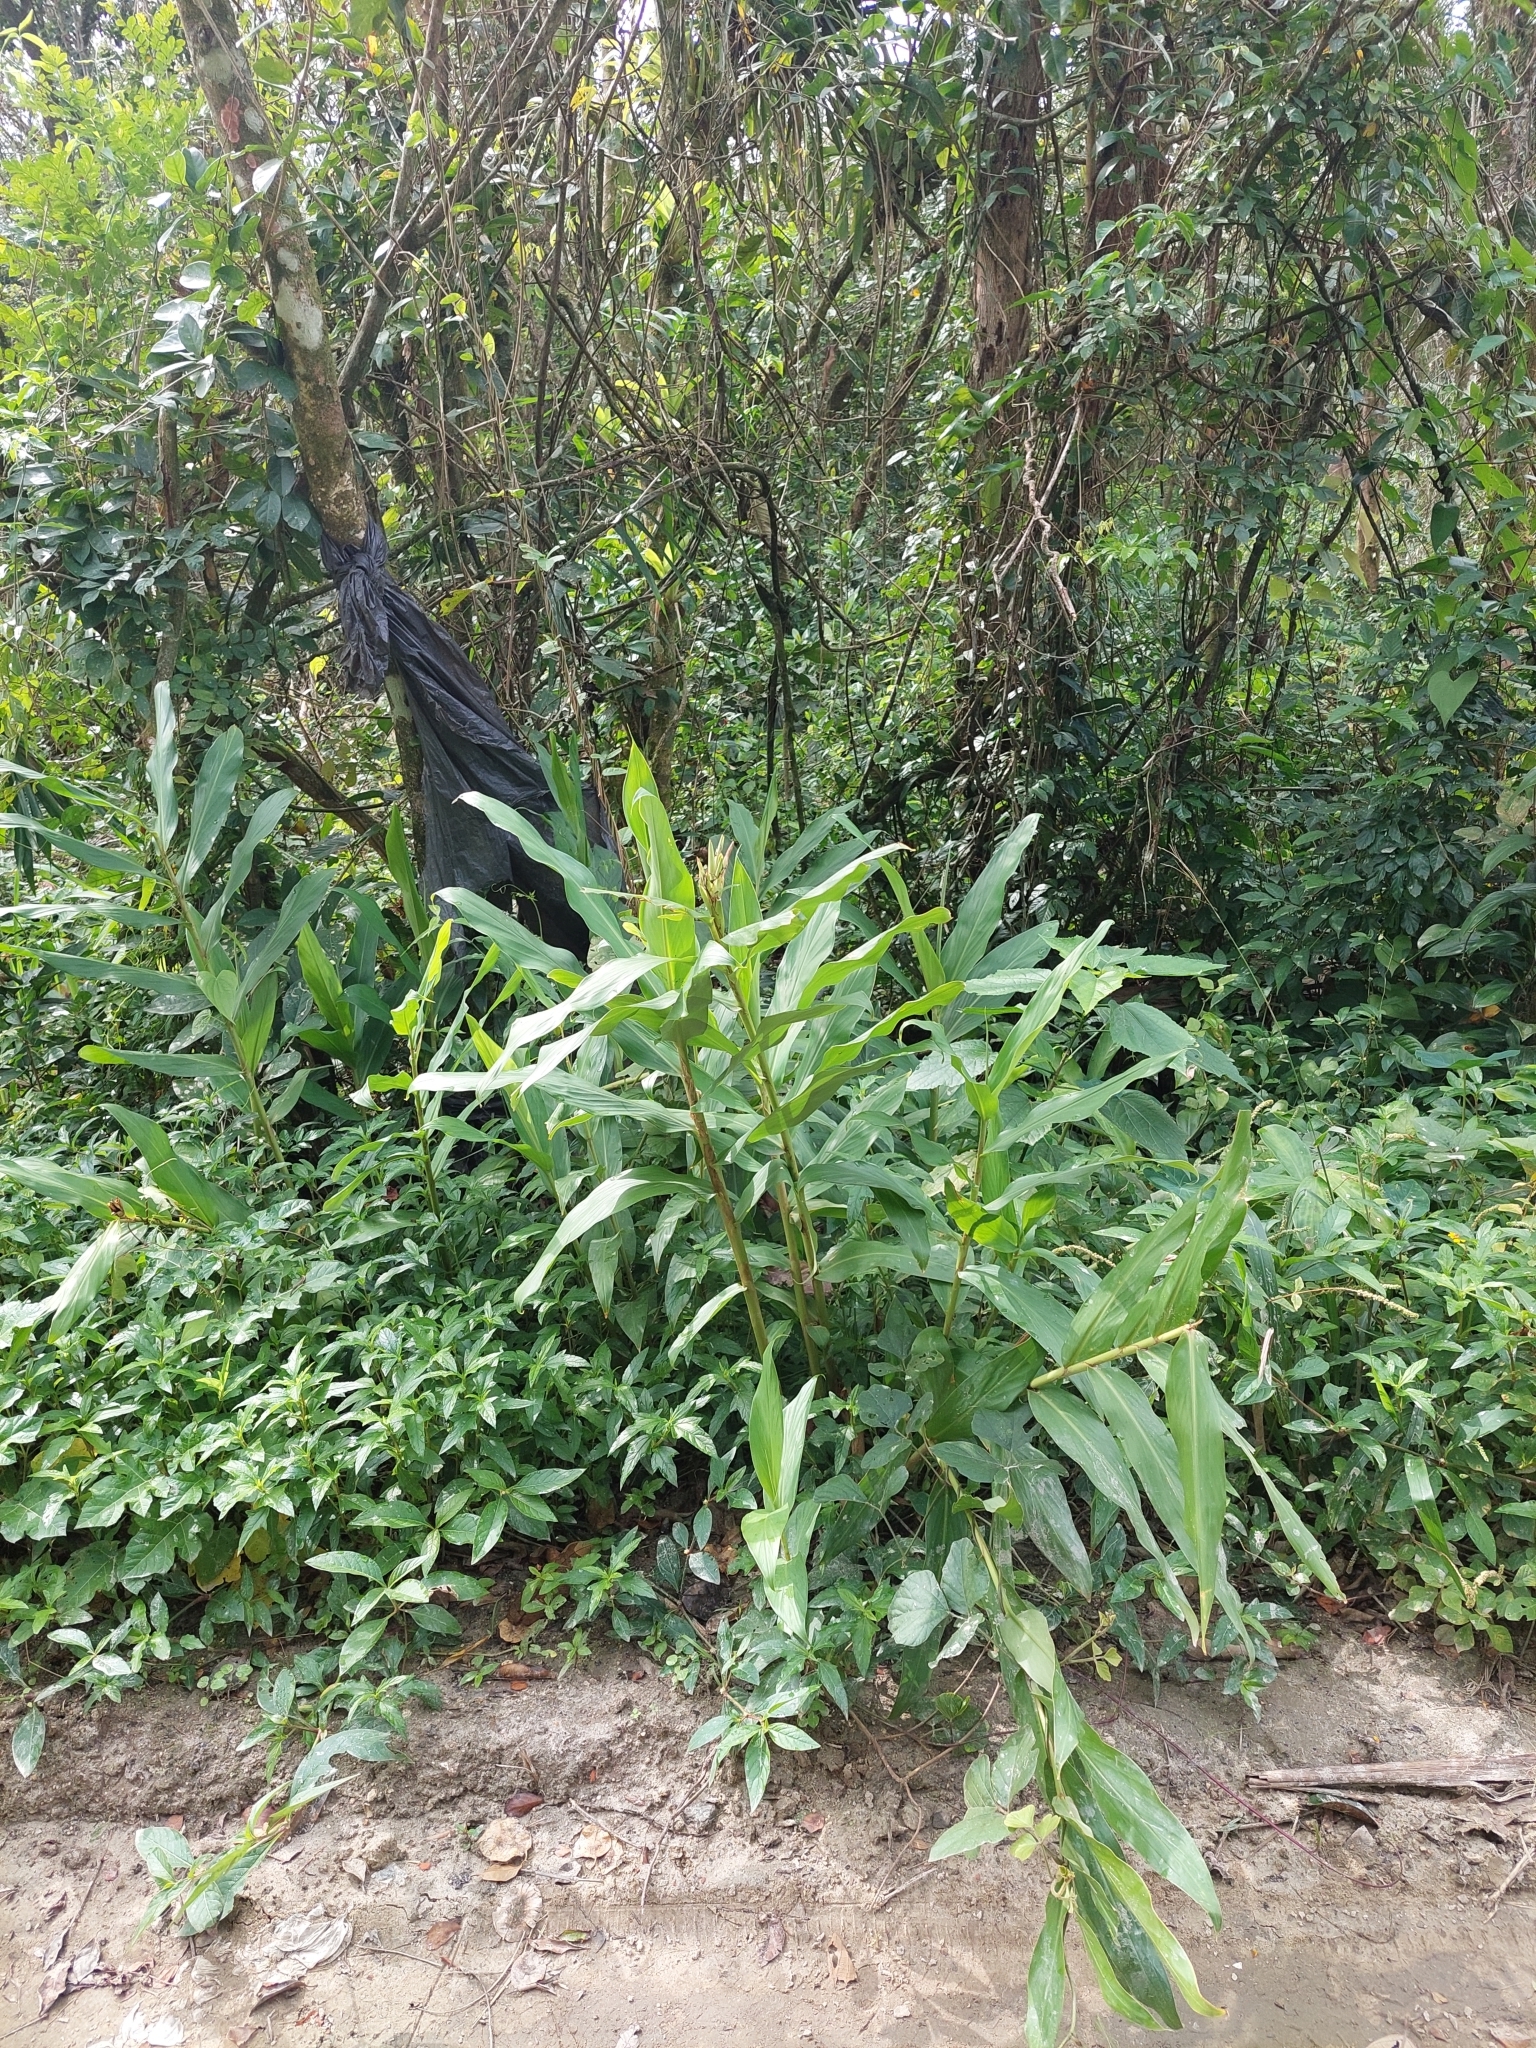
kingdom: Plantae
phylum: Tracheophyta
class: Liliopsida
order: Zingiberales
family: Zingiberaceae
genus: Hedychium
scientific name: Hedychium coronarium
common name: White garland-lily
